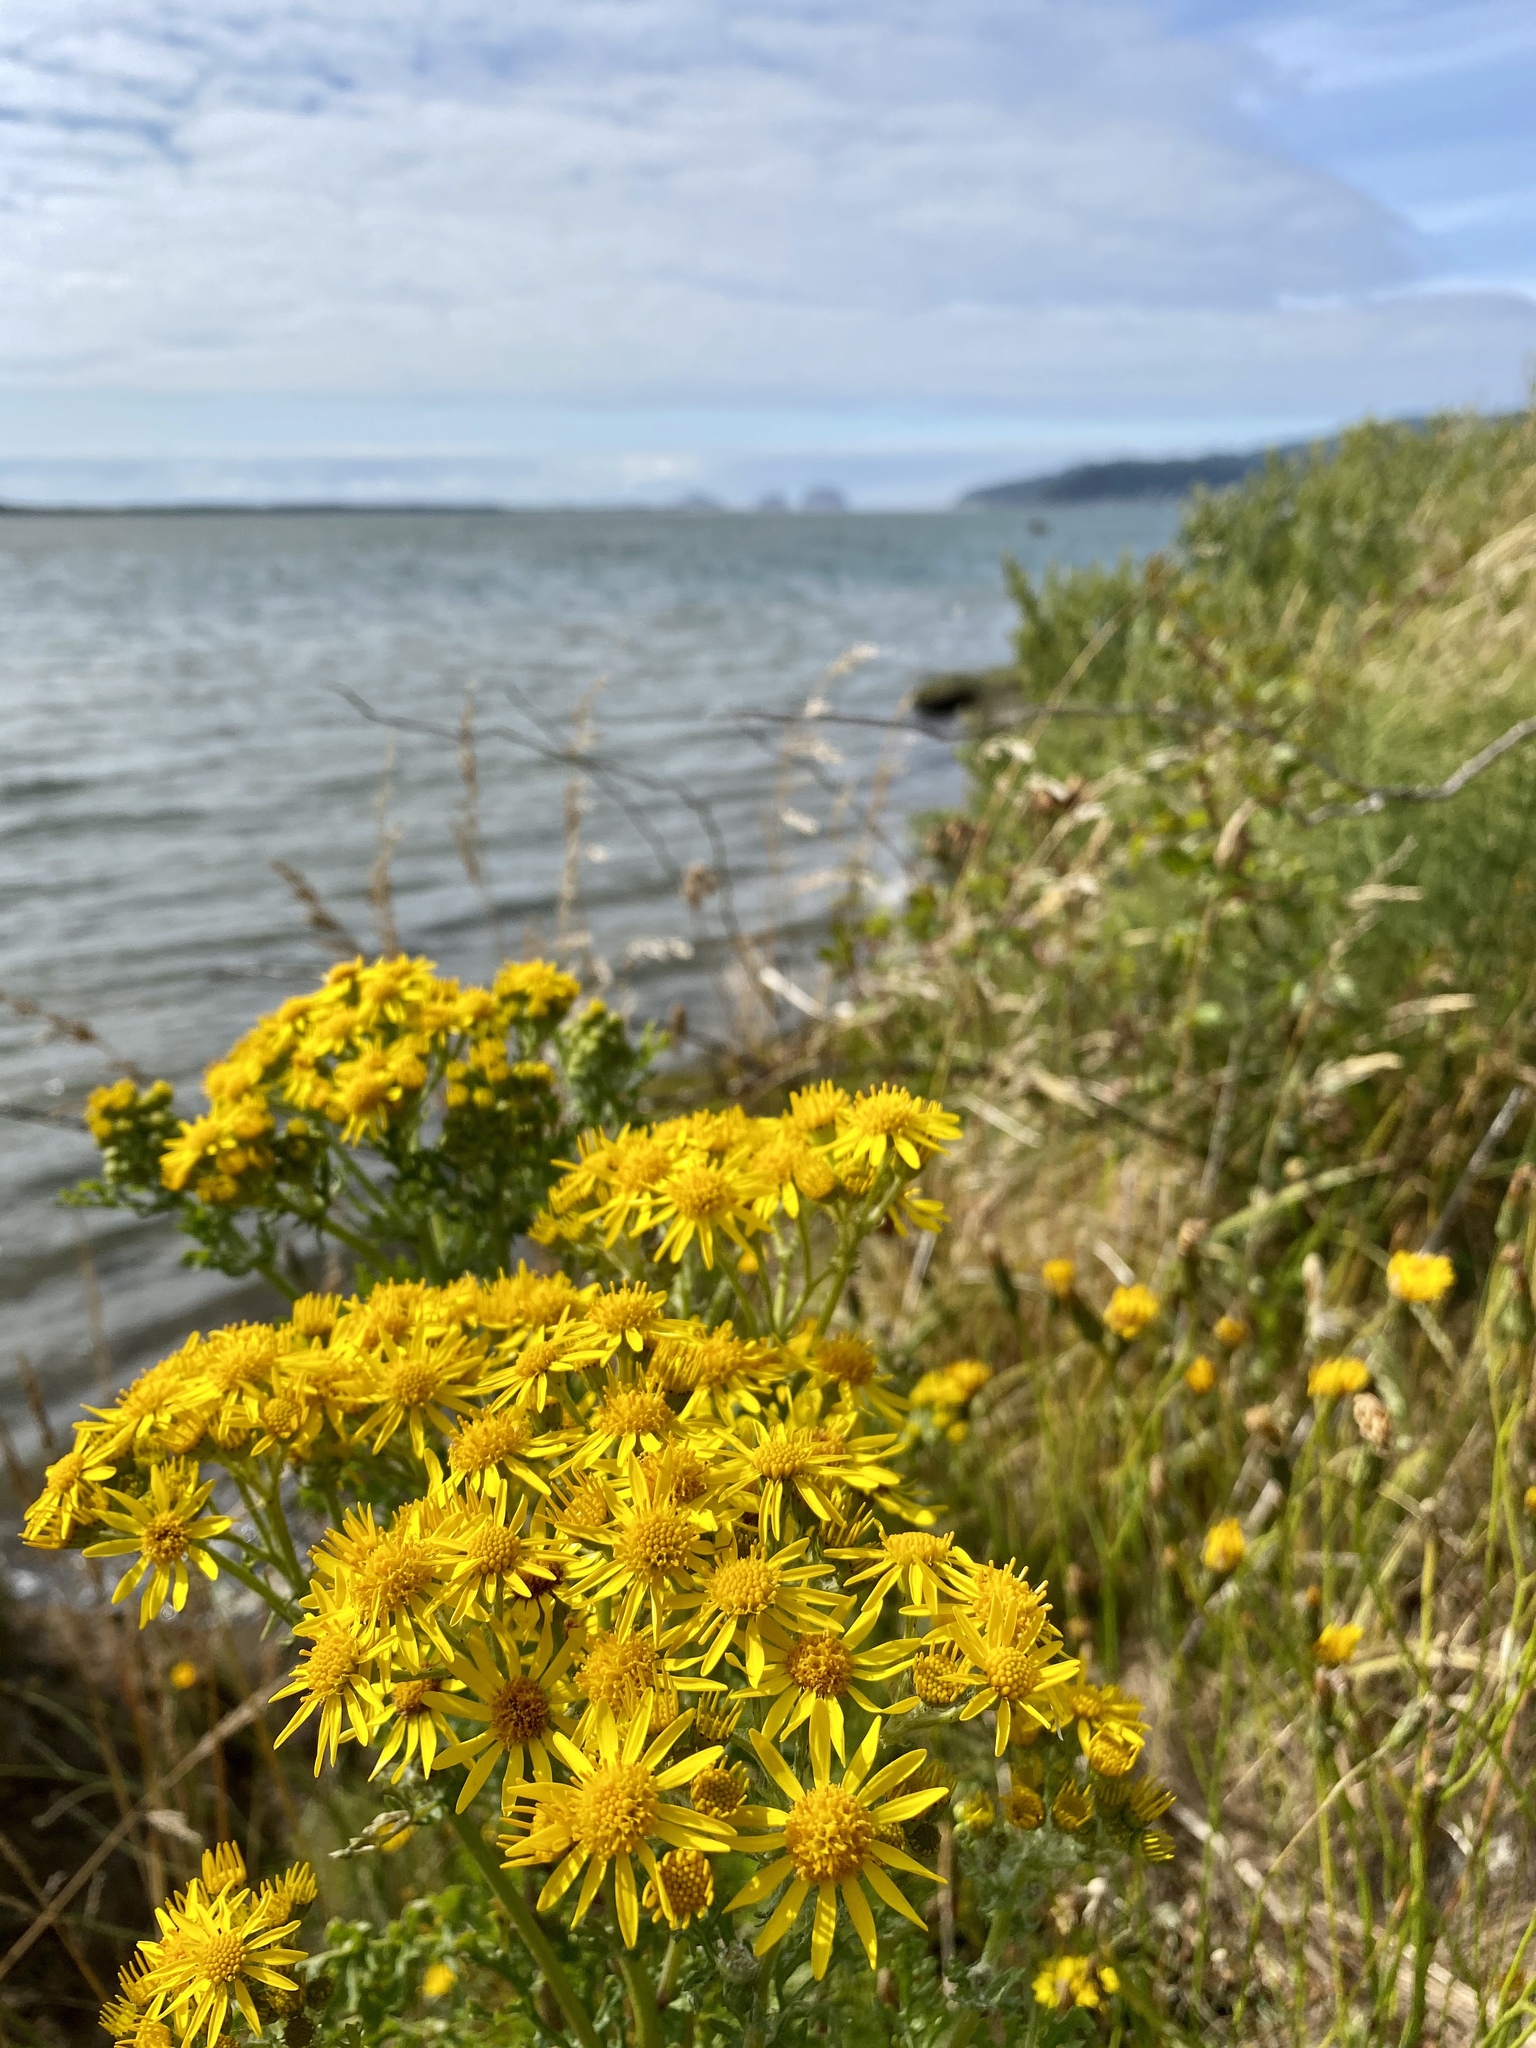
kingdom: Plantae
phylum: Tracheophyta
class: Magnoliopsida
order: Asterales
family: Asteraceae
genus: Jacobaea
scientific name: Jacobaea vulgaris
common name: Stinking willie
